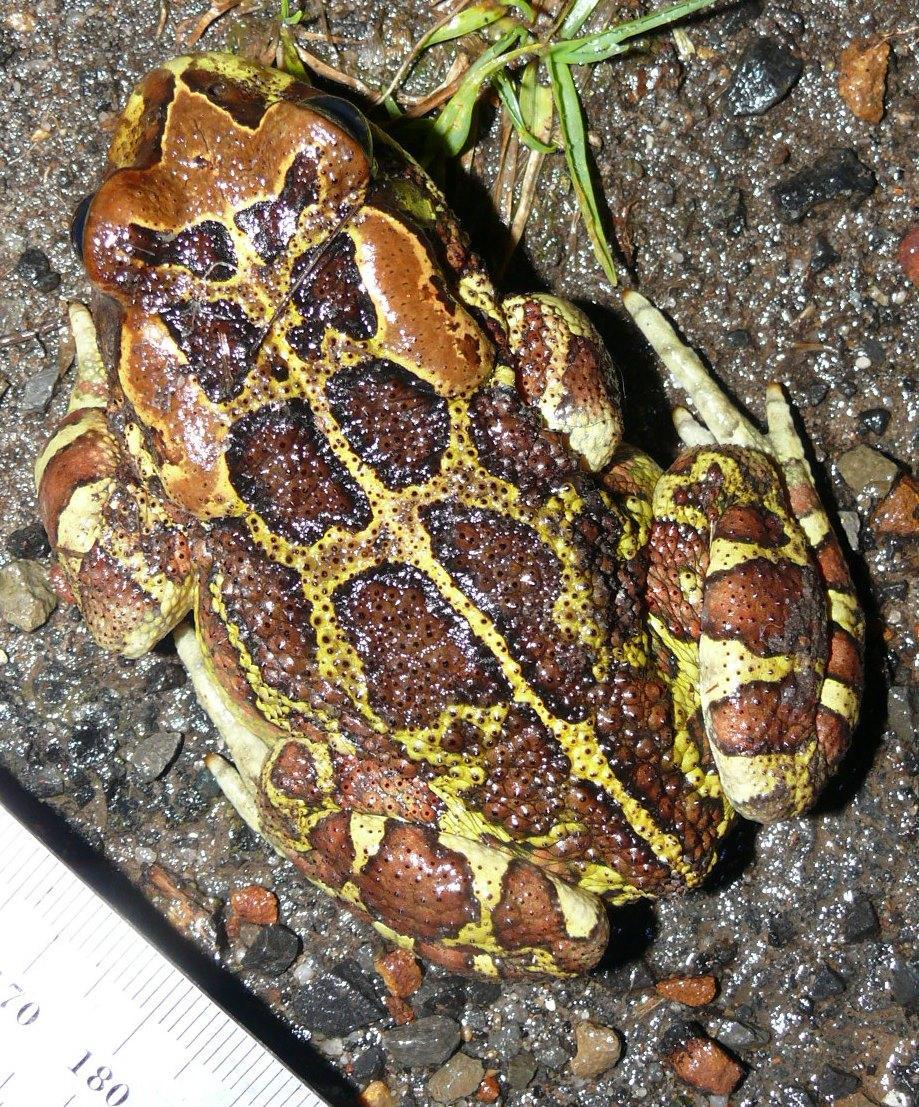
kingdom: Animalia
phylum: Chordata
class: Amphibia
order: Anura
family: Bufonidae
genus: Sclerophrys
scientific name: Sclerophrys pantherina
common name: Panther toad
